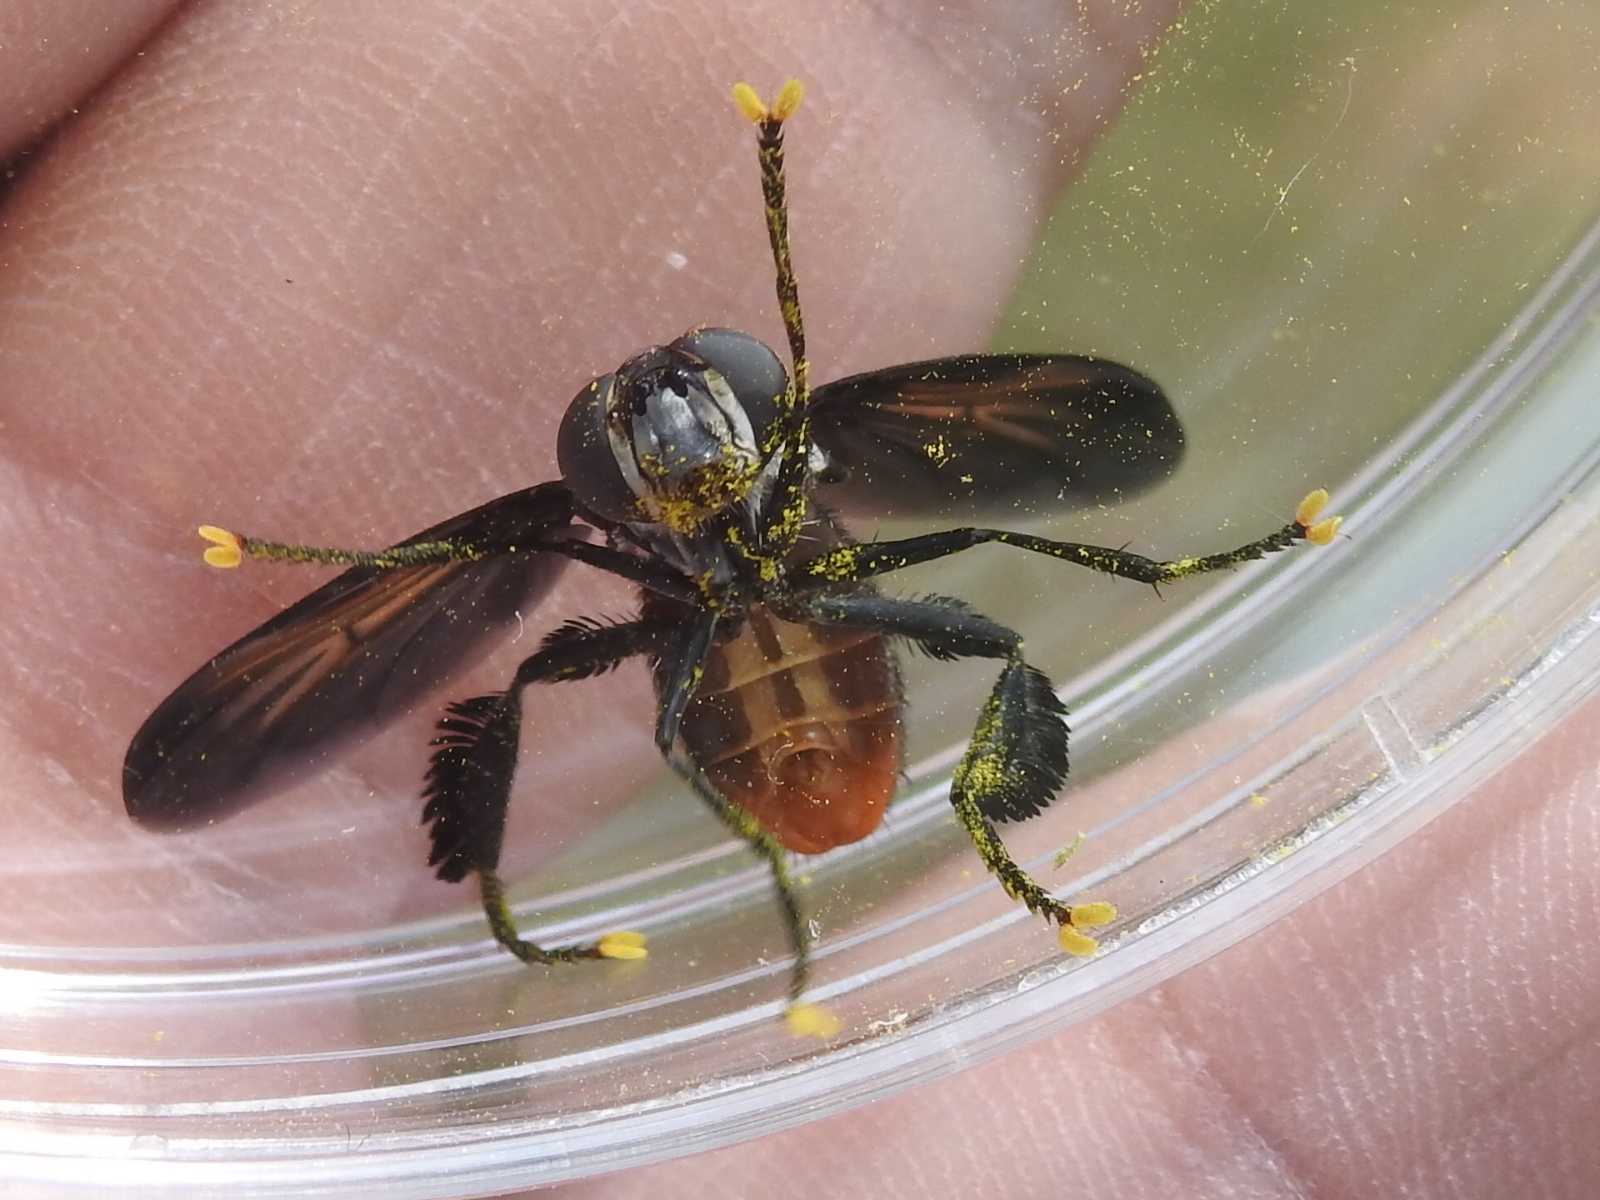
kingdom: Animalia
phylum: Arthropoda
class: Insecta
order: Diptera
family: Tachinidae
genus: Trichopoda
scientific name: Trichopoda lanipes
